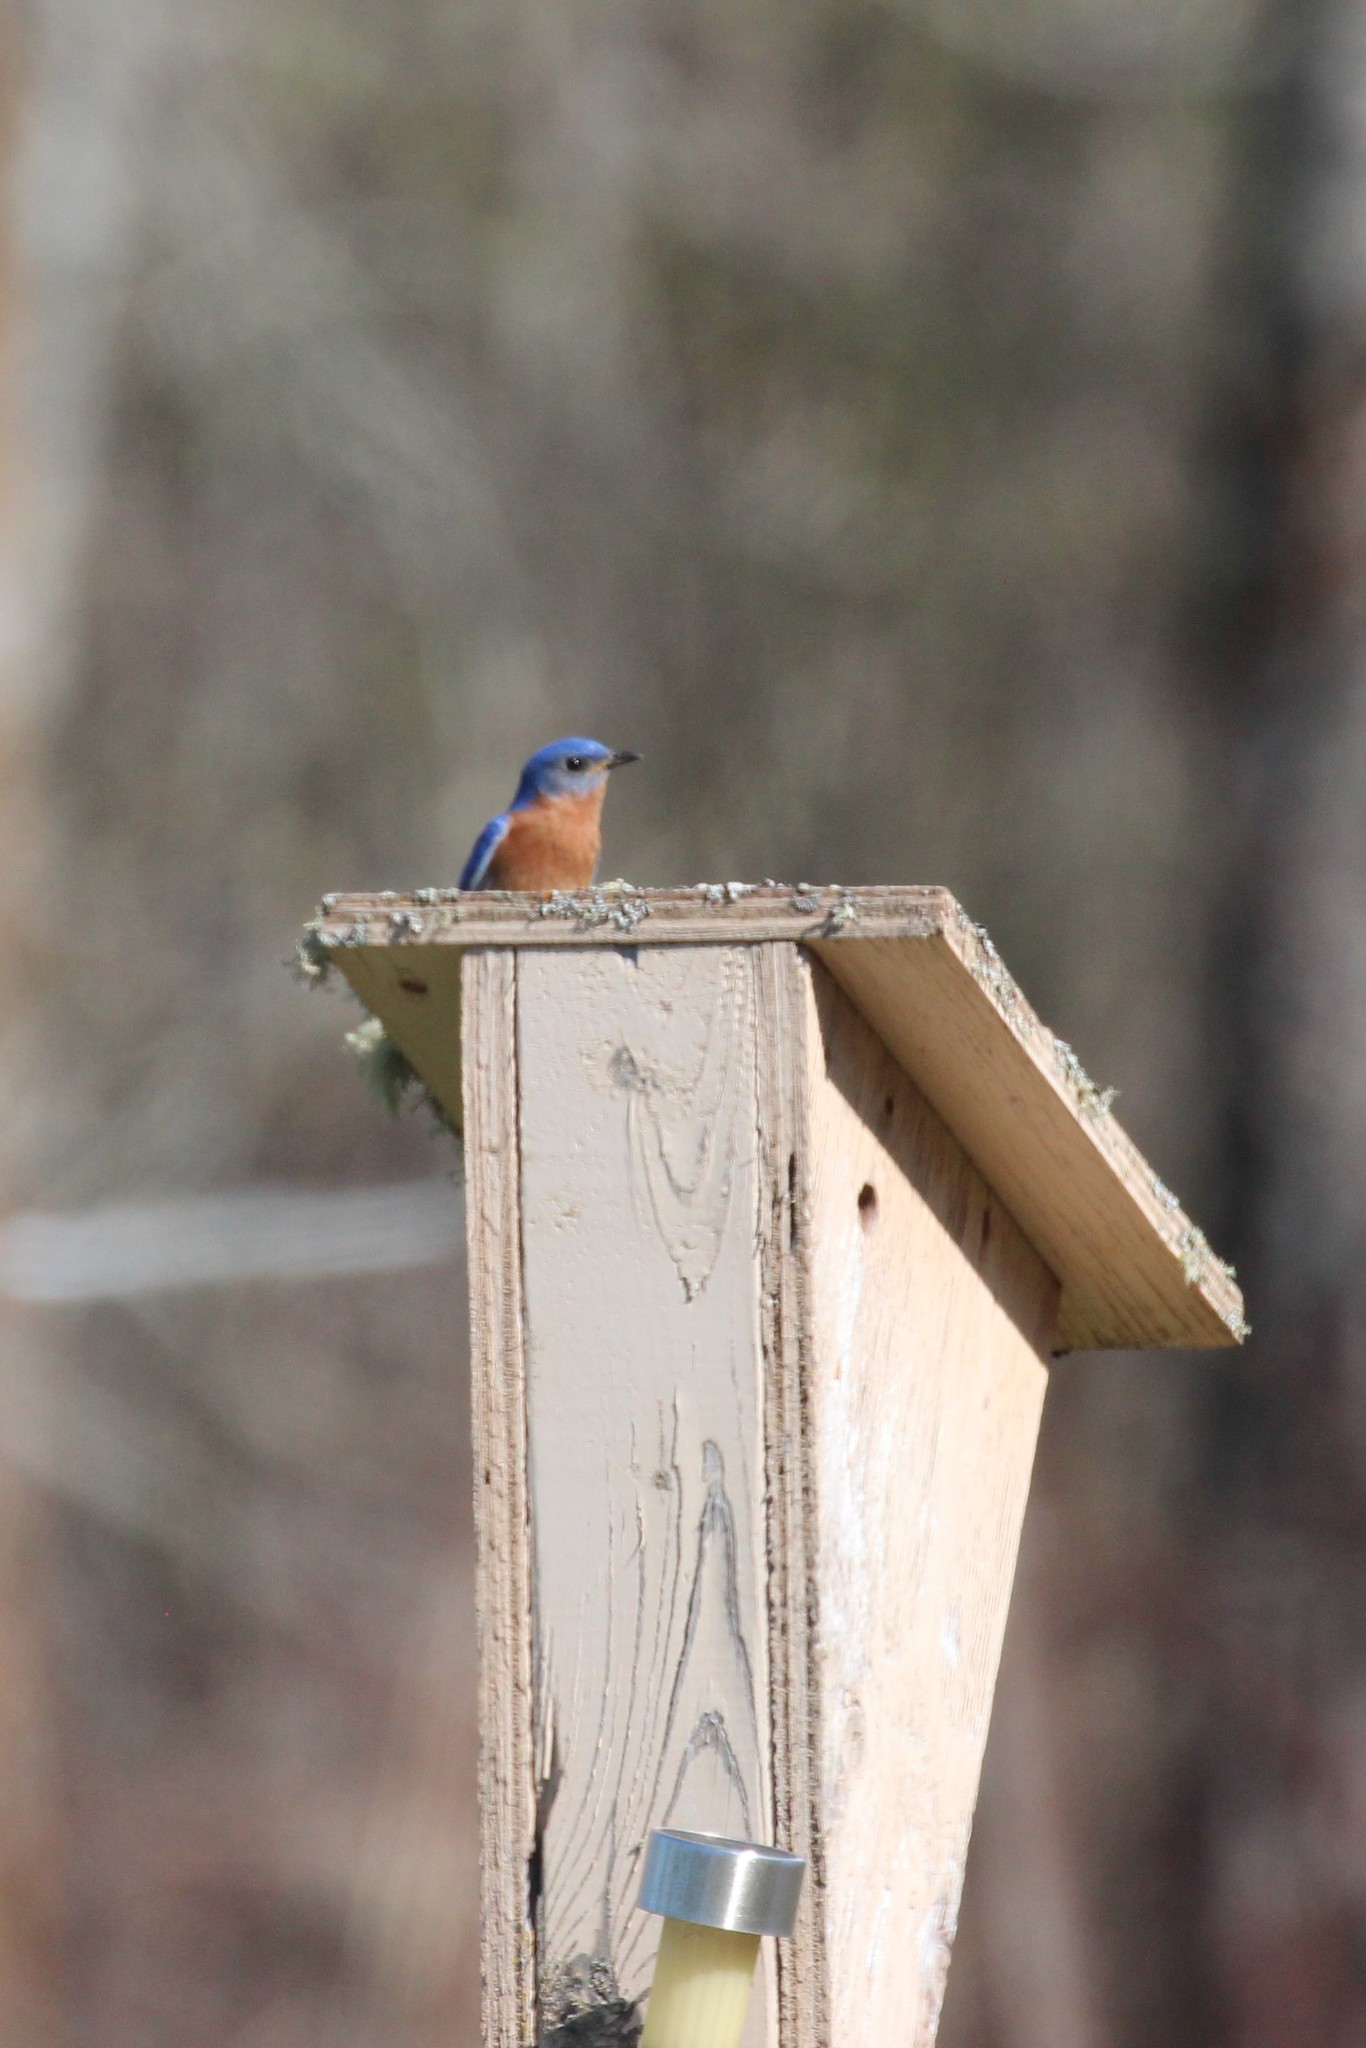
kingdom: Animalia
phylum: Chordata
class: Aves
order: Passeriformes
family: Turdidae
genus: Sialia
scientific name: Sialia sialis
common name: Eastern bluebird
